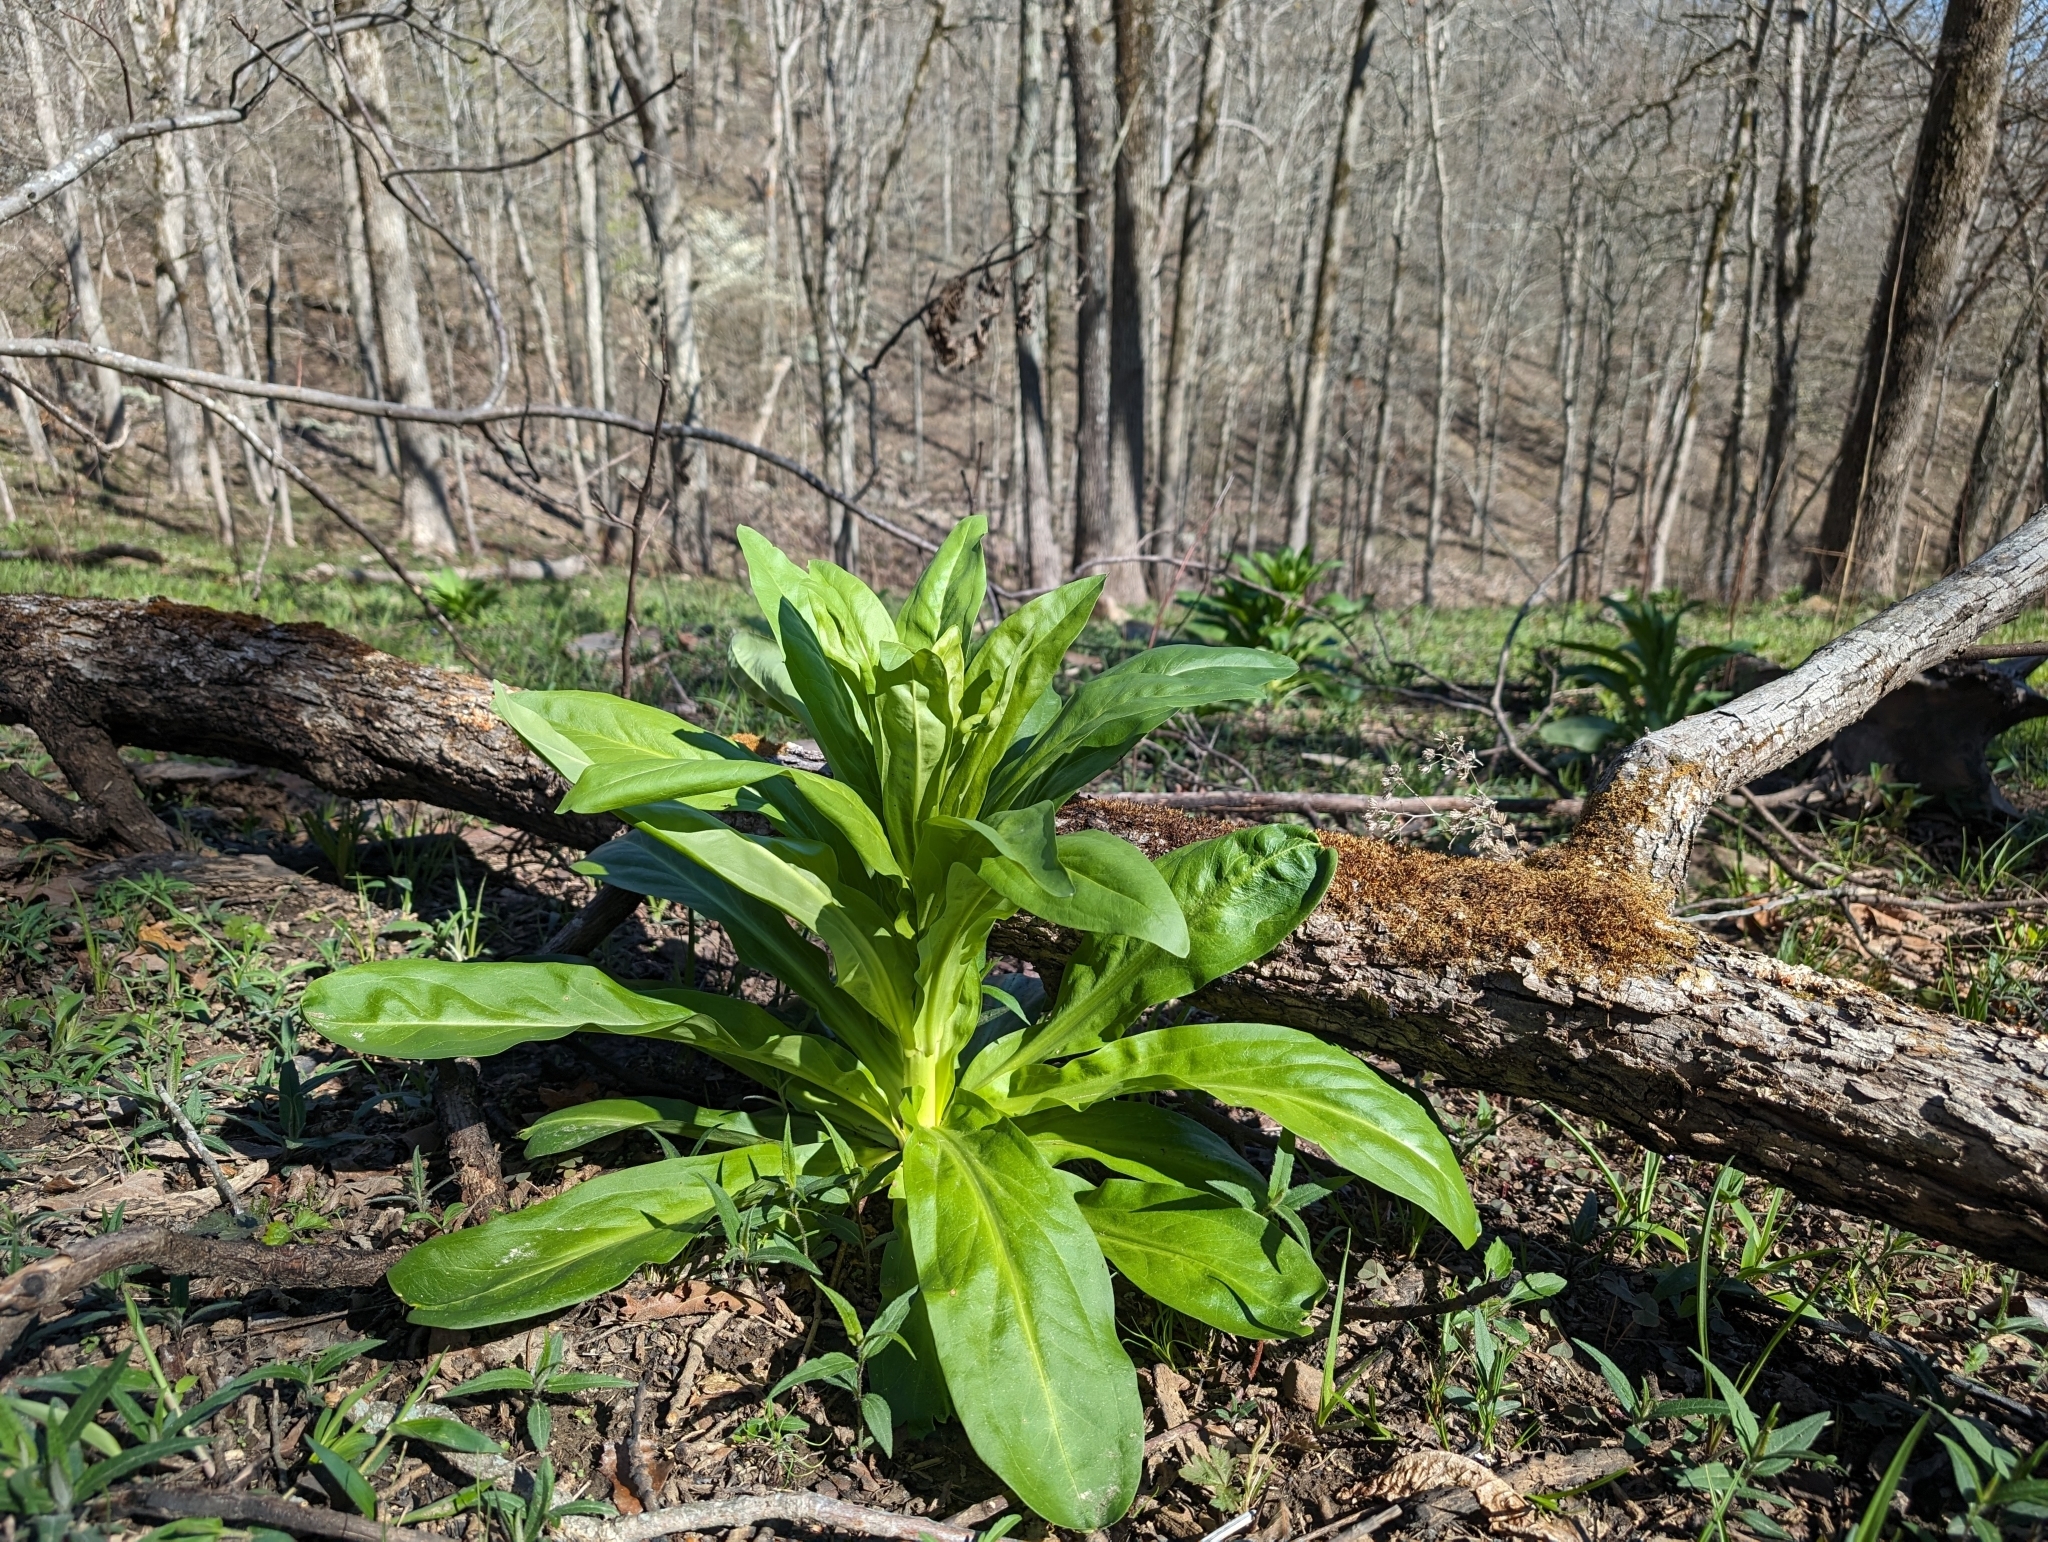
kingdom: Plantae
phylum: Tracheophyta
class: Magnoliopsida
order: Gentianales
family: Gentianaceae
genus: Frasera
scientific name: Frasera caroliniensis
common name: American columbo
